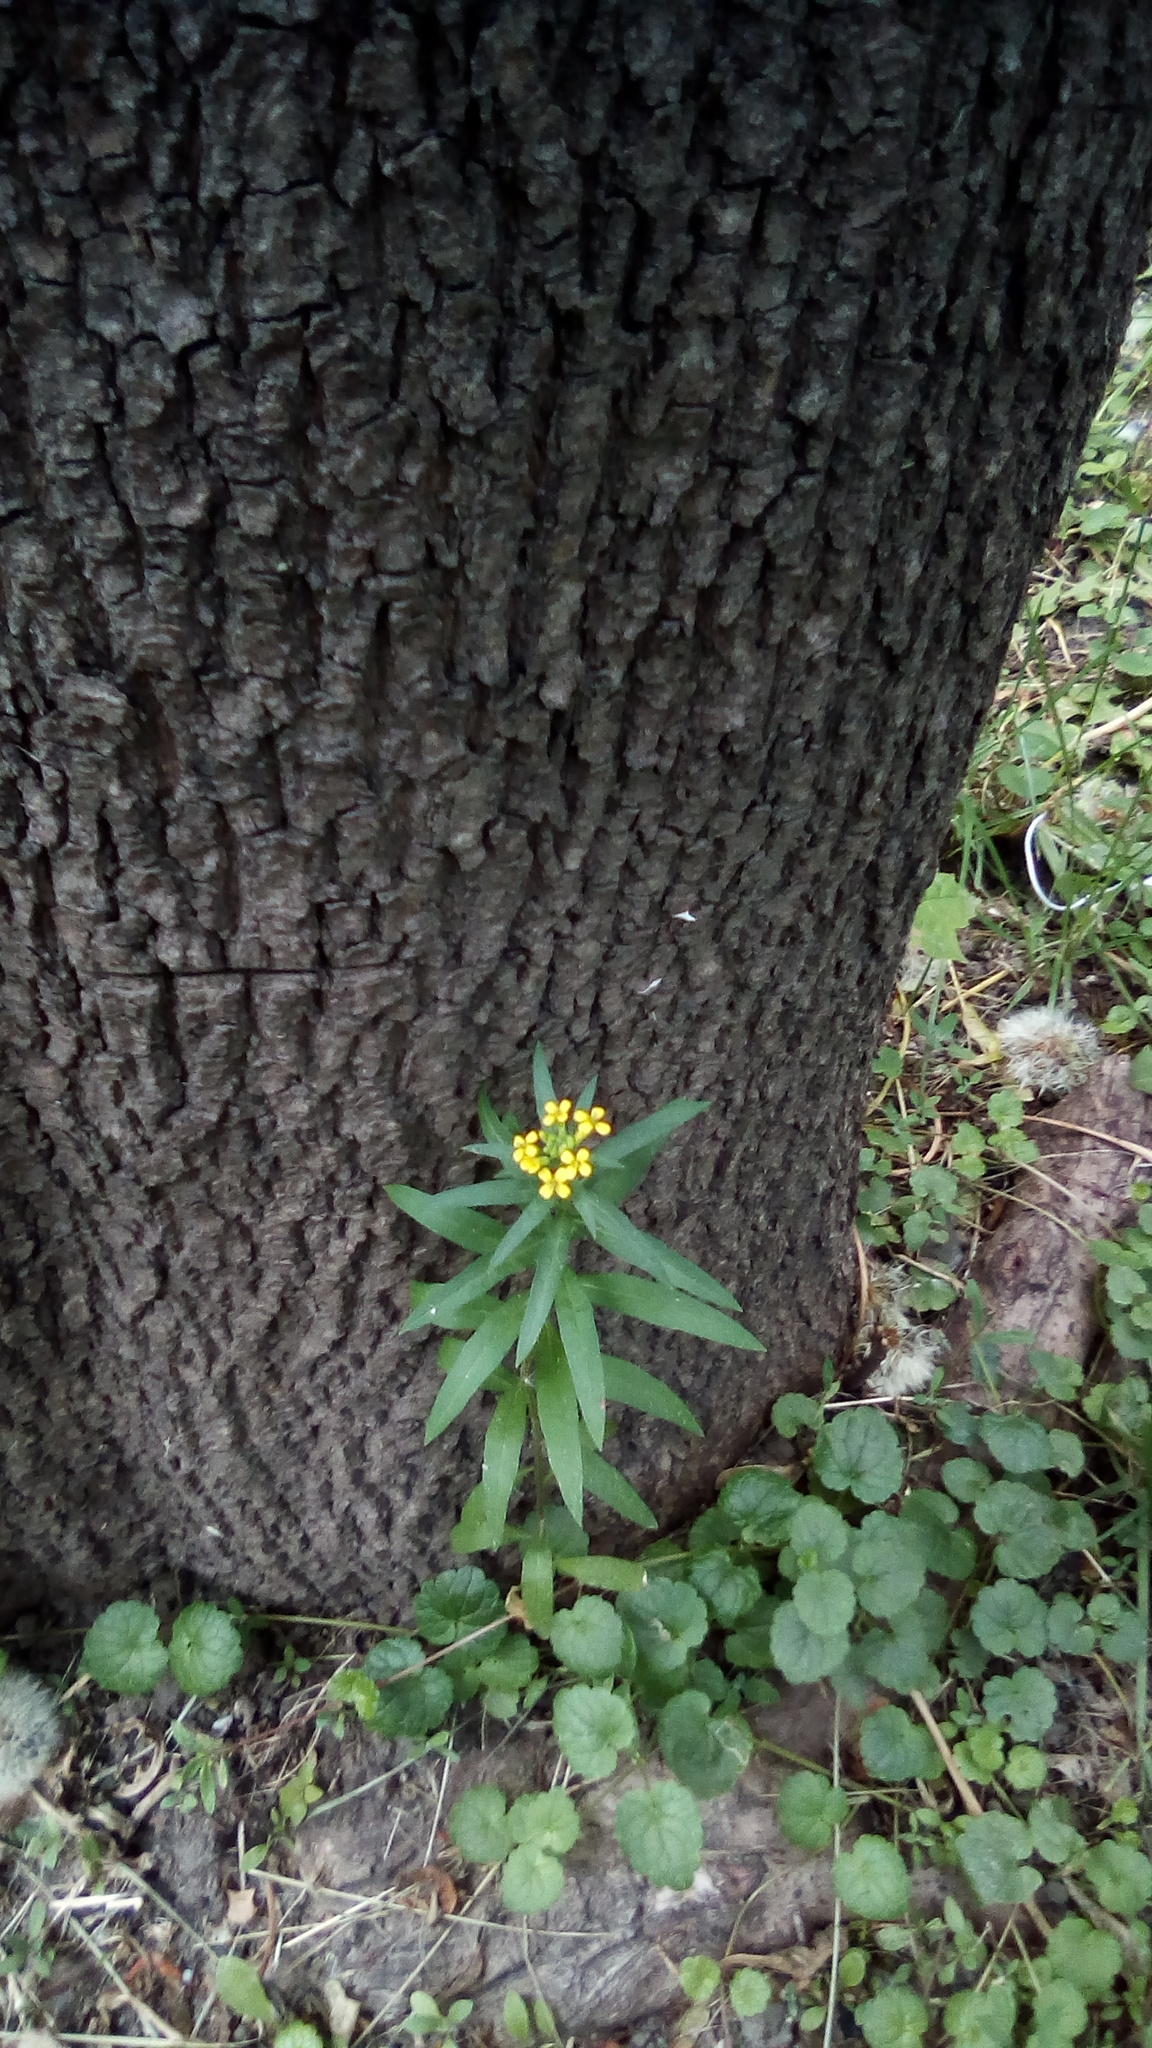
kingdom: Plantae
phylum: Tracheophyta
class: Magnoliopsida
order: Brassicales
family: Brassicaceae
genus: Erysimum
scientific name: Erysimum cheiranthoides
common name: Treacle mustard
